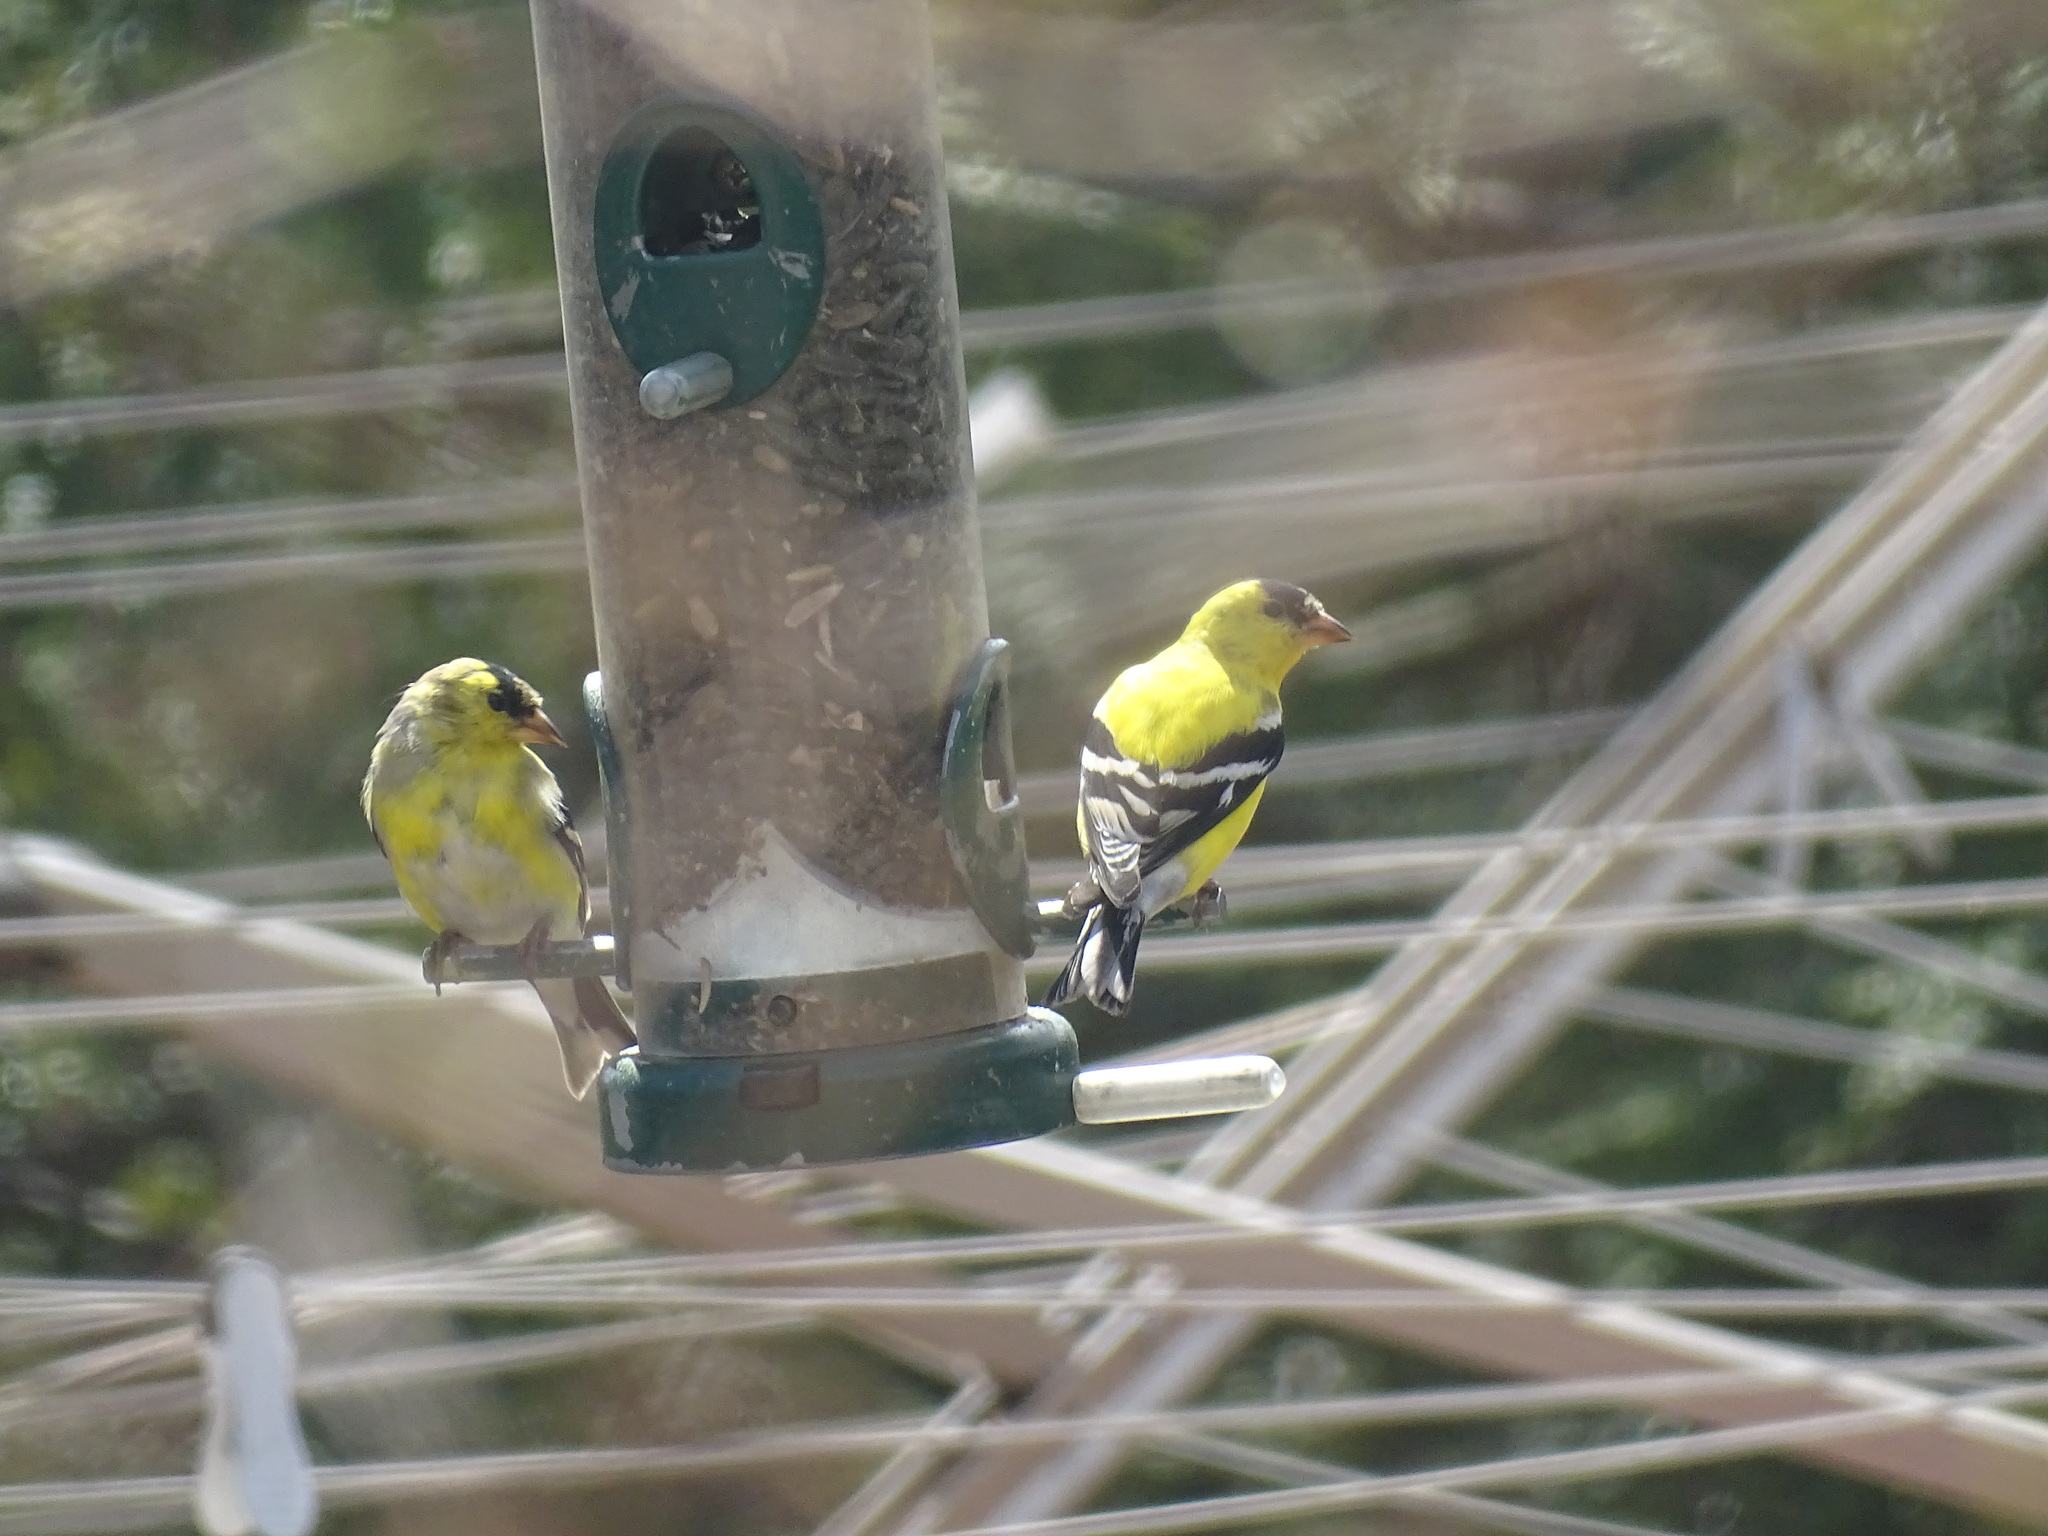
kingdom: Animalia
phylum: Chordata
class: Aves
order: Passeriformes
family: Fringillidae
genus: Spinus
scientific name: Spinus tristis
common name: American goldfinch
